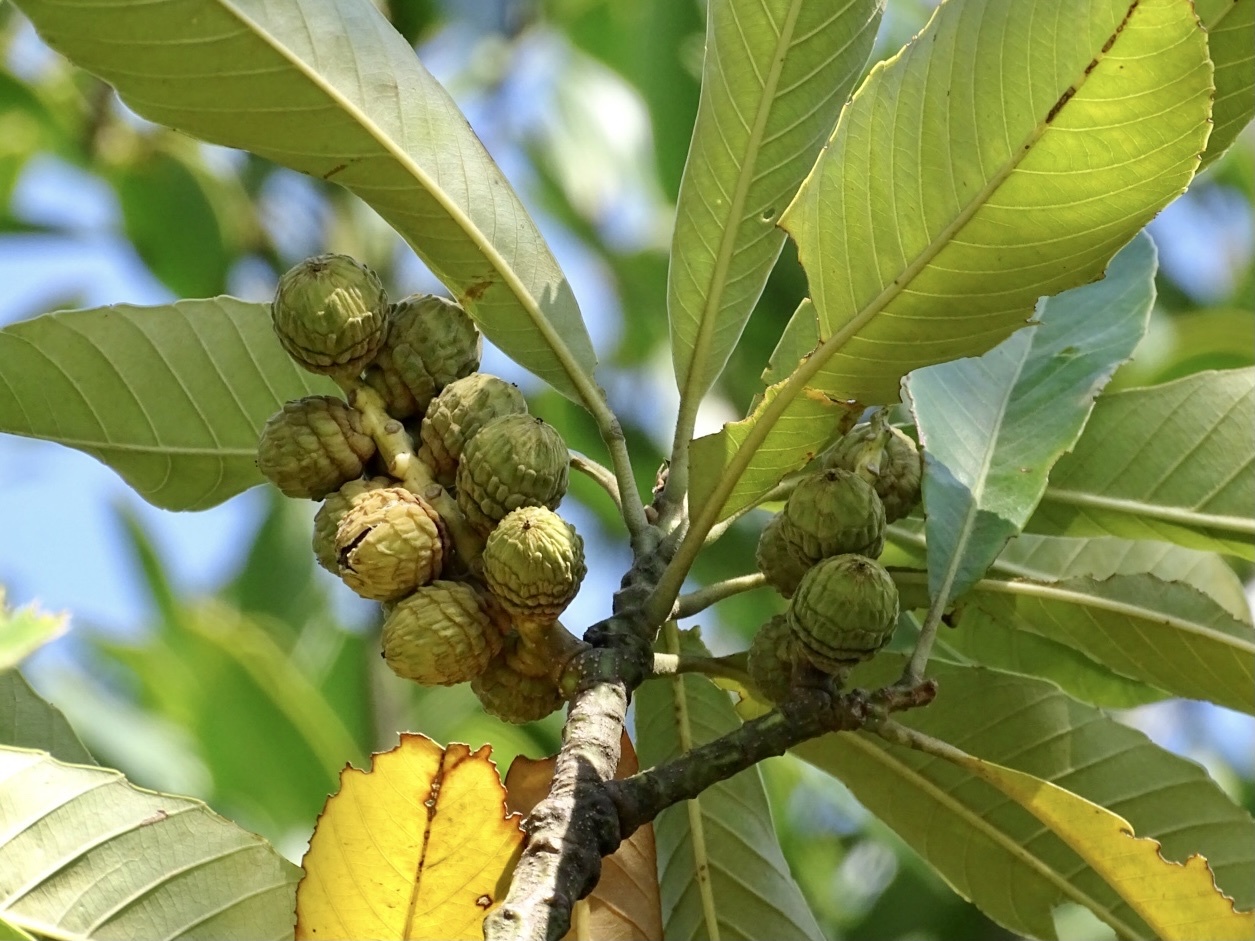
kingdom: Plantae
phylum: Tracheophyta
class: Magnoliopsida
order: Fagales
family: Fagaceae
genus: Castanopsis
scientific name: Castanopsis fissa
